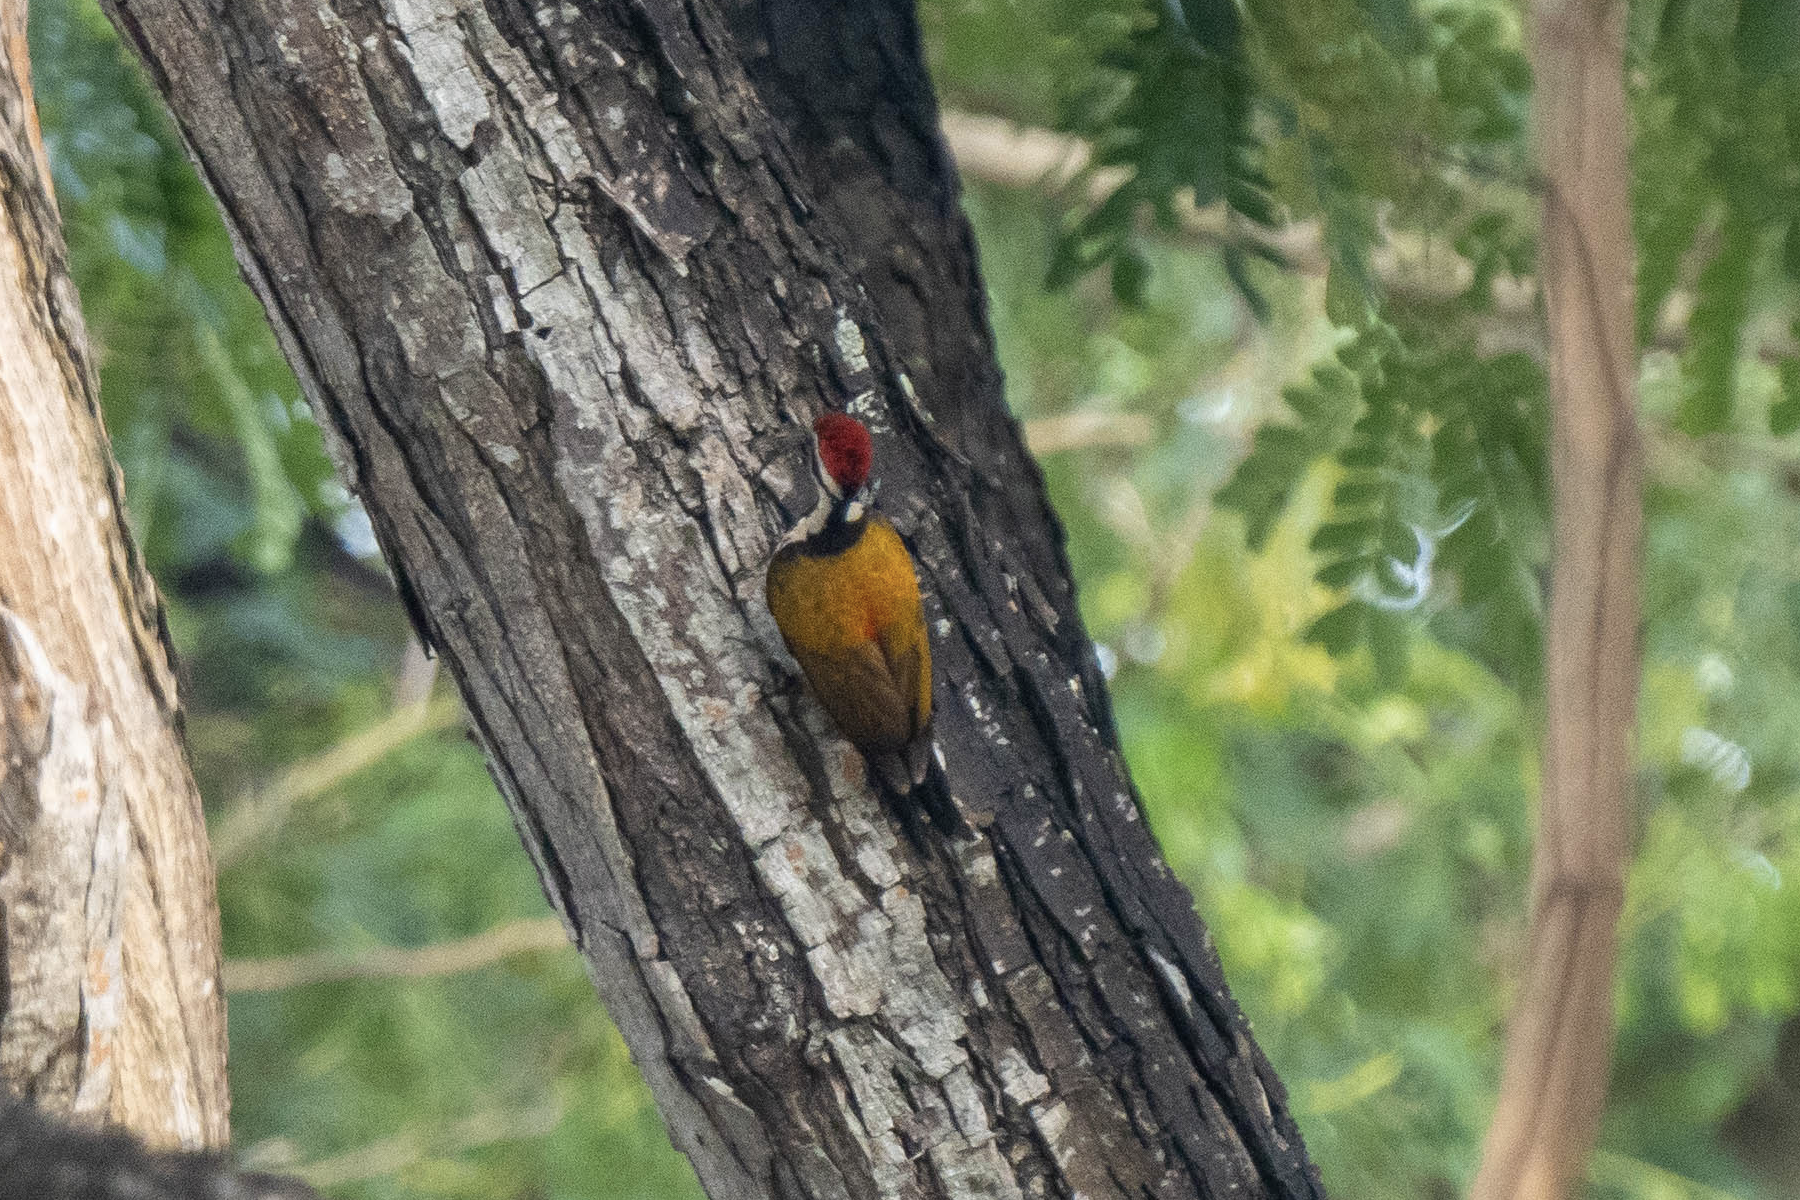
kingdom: Animalia
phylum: Chordata
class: Aves
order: Piciformes
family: Picidae
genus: Dinopium
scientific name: Dinopium javanense
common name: Common flameback
